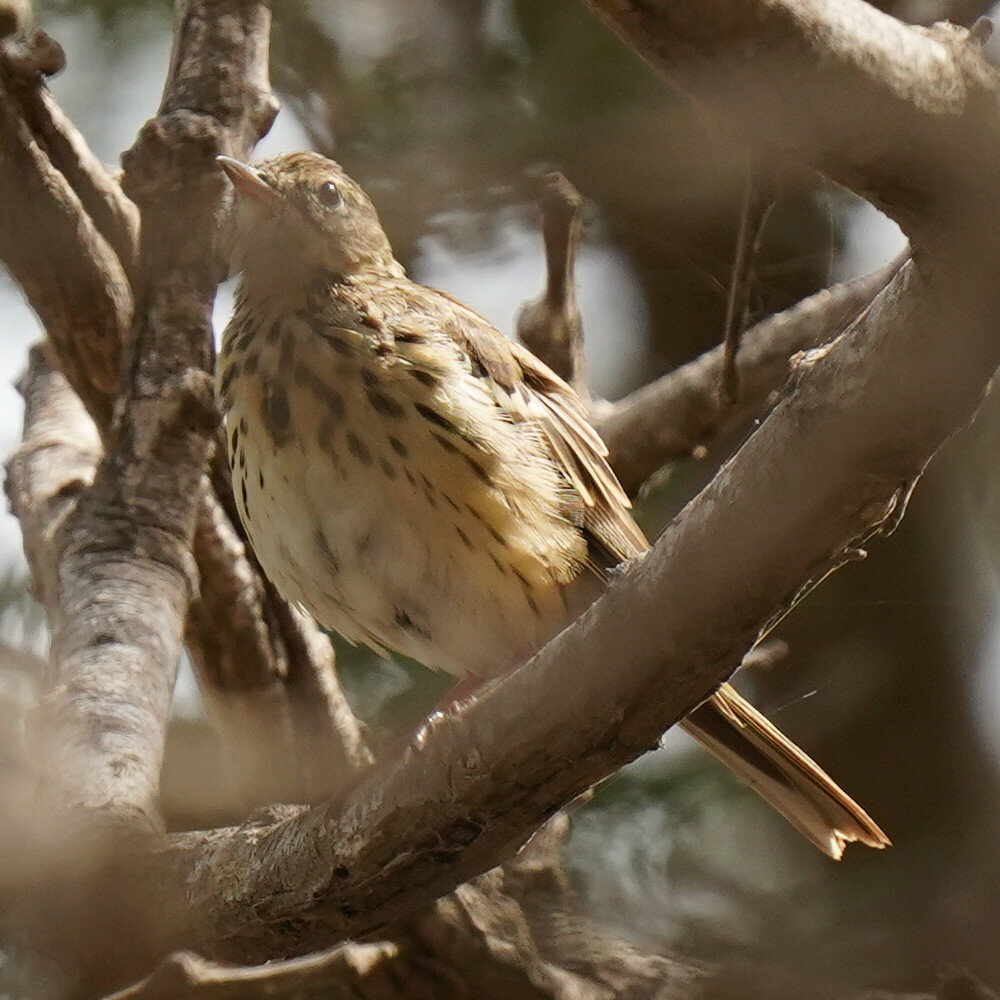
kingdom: Animalia
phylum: Chordata
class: Aves
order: Passeriformes
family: Motacillidae
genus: Anthus
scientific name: Anthus trivialis
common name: Tree pipit
